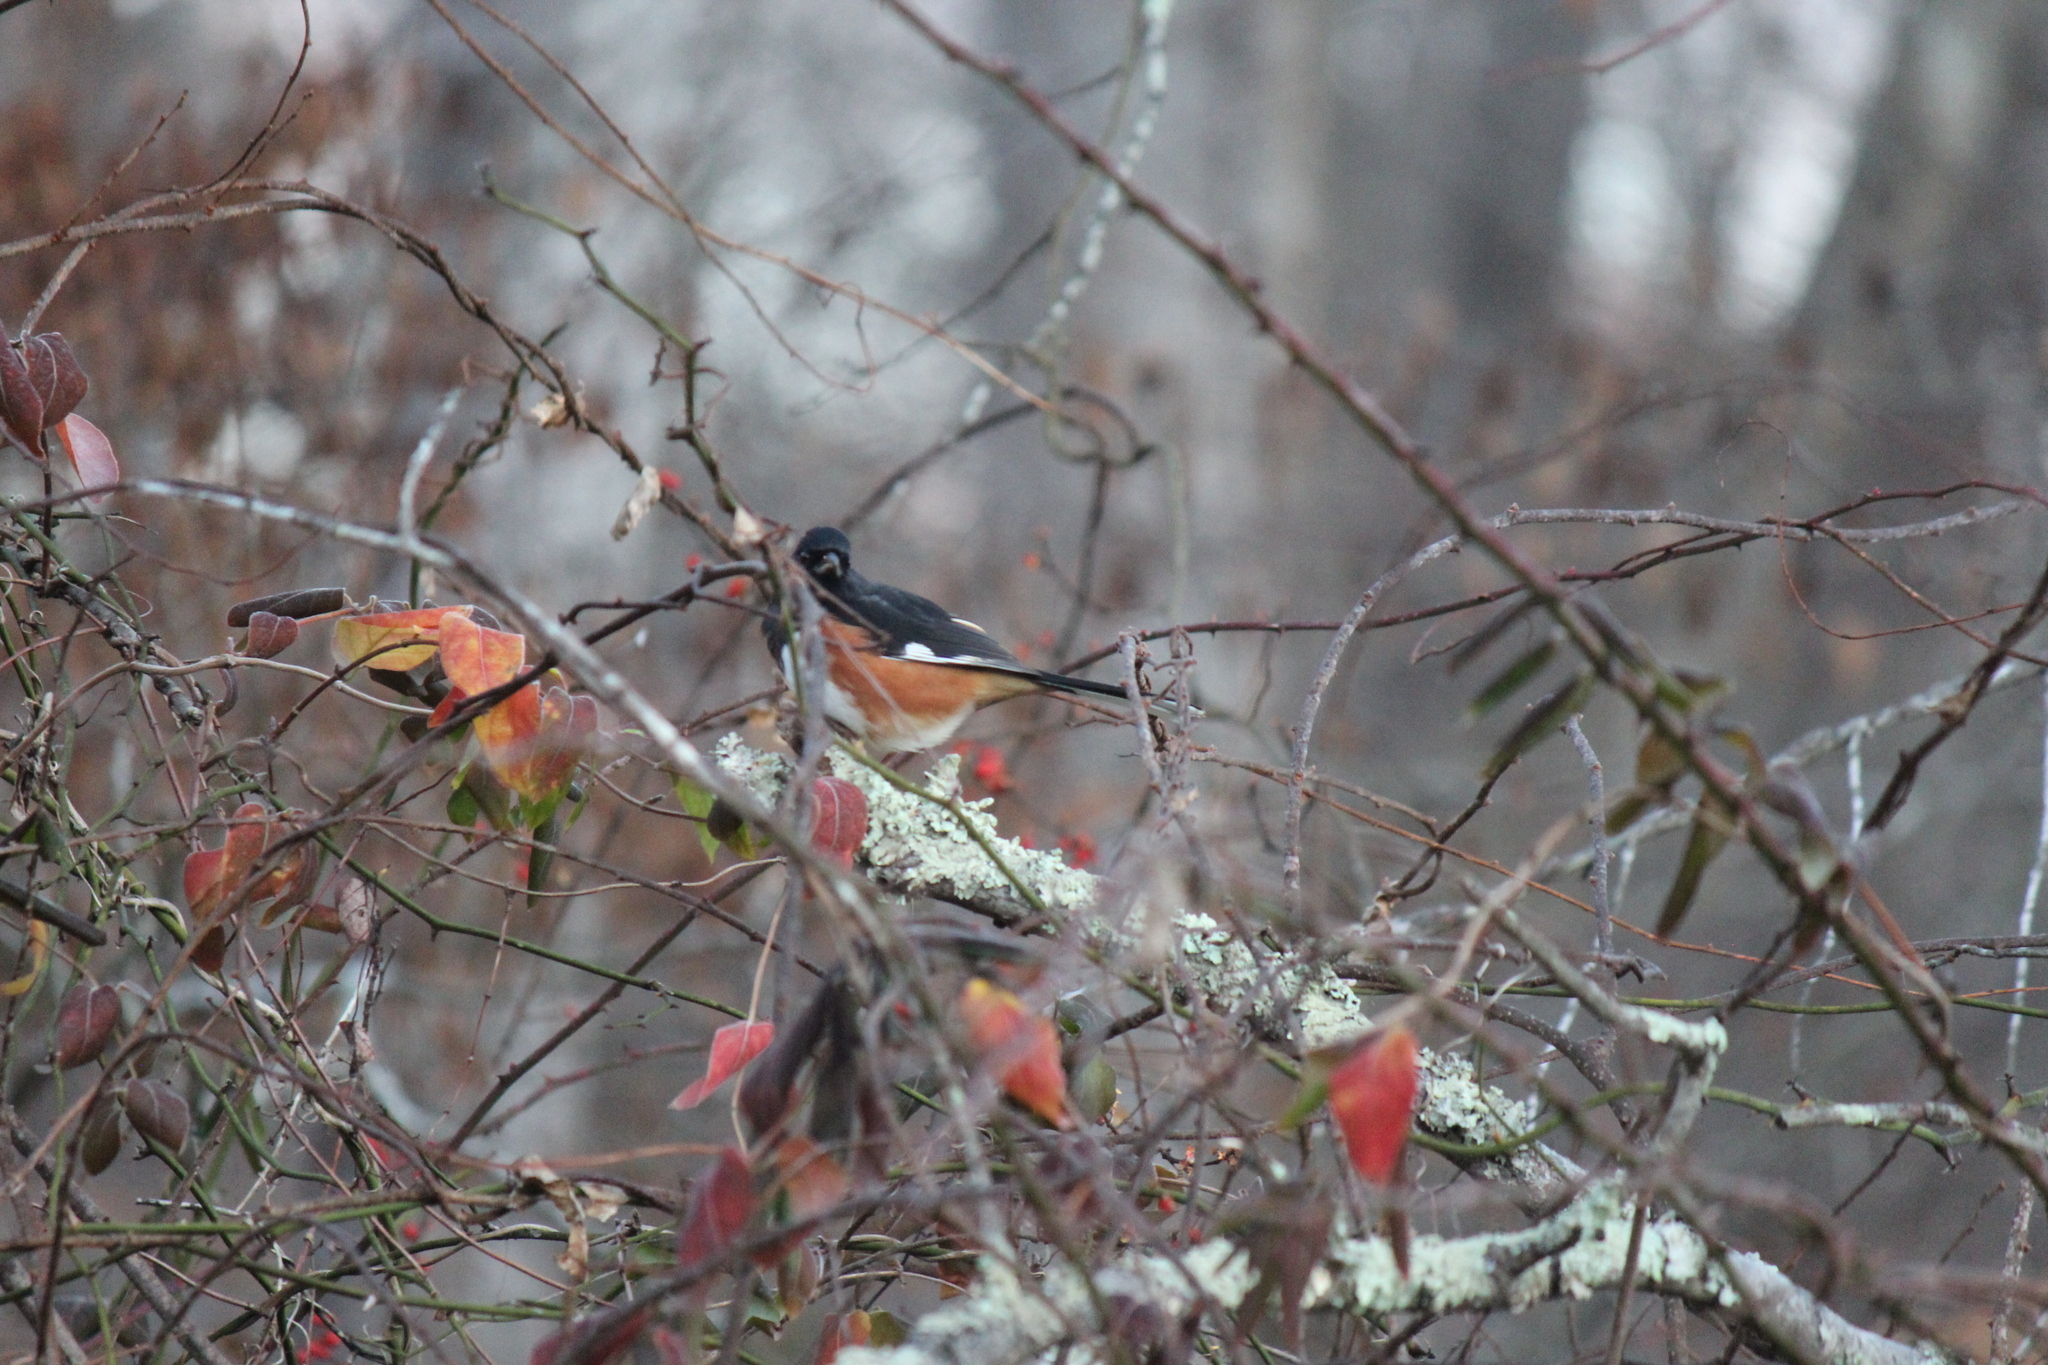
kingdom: Animalia
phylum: Chordata
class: Aves
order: Passeriformes
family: Passerellidae
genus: Pipilo
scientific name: Pipilo erythrophthalmus
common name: Eastern towhee
